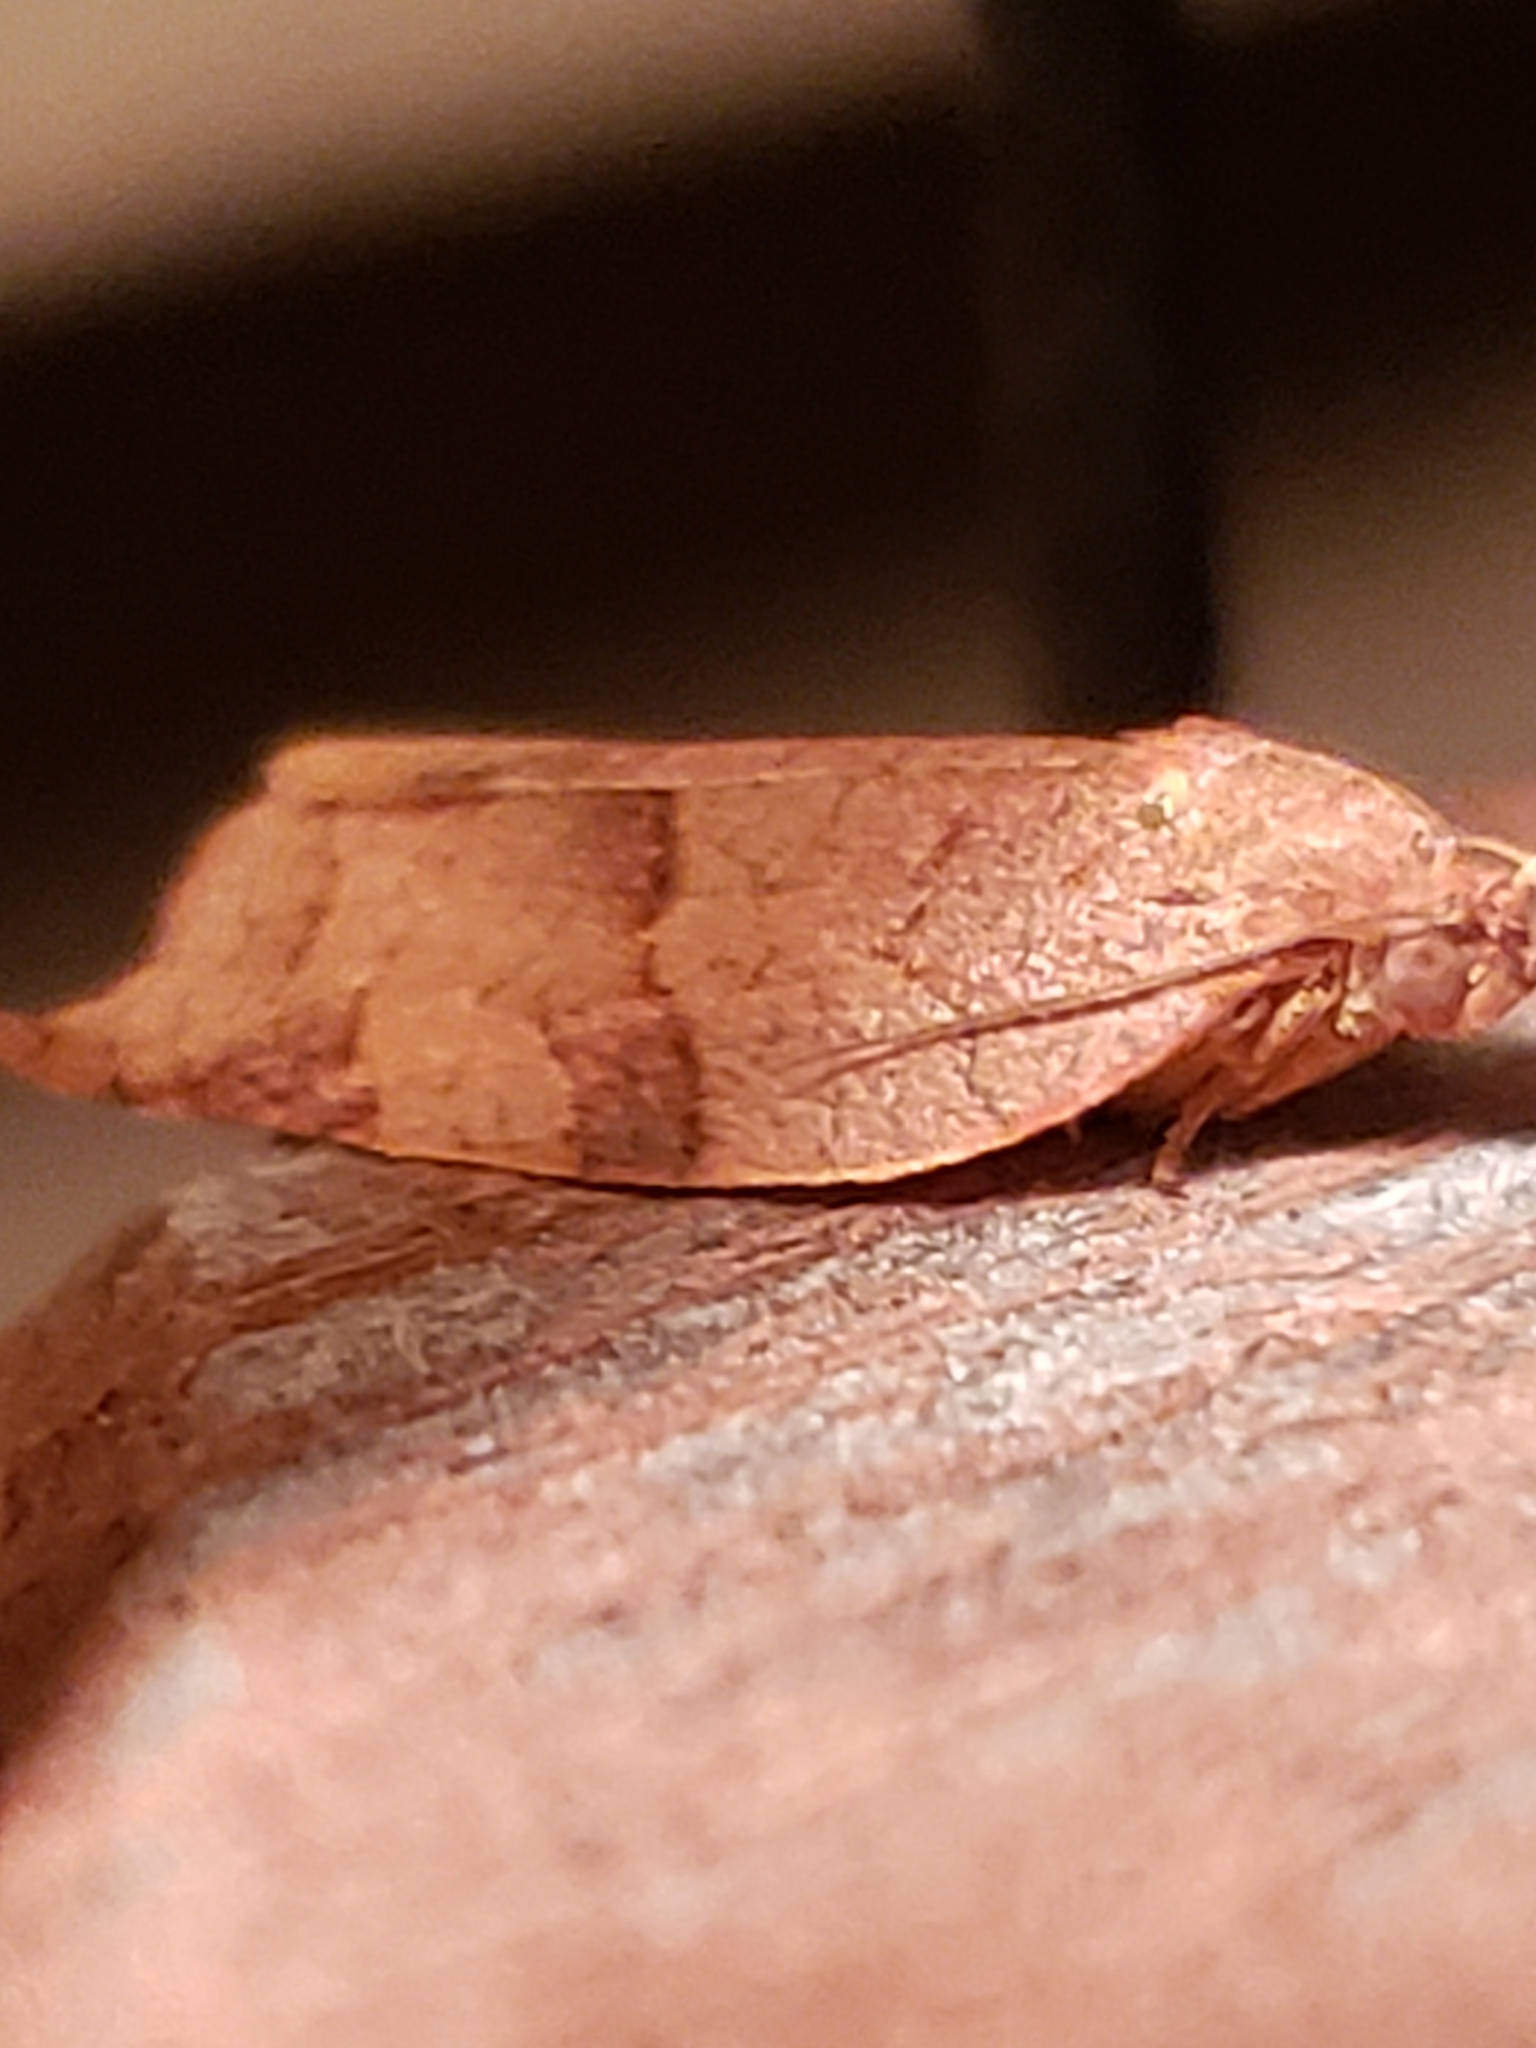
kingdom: Animalia
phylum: Arthropoda
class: Insecta
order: Lepidoptera
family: Tortricidae
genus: Choristoneura
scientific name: Choristoneura rosaceana
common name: Oblique-banded leafroller moth
